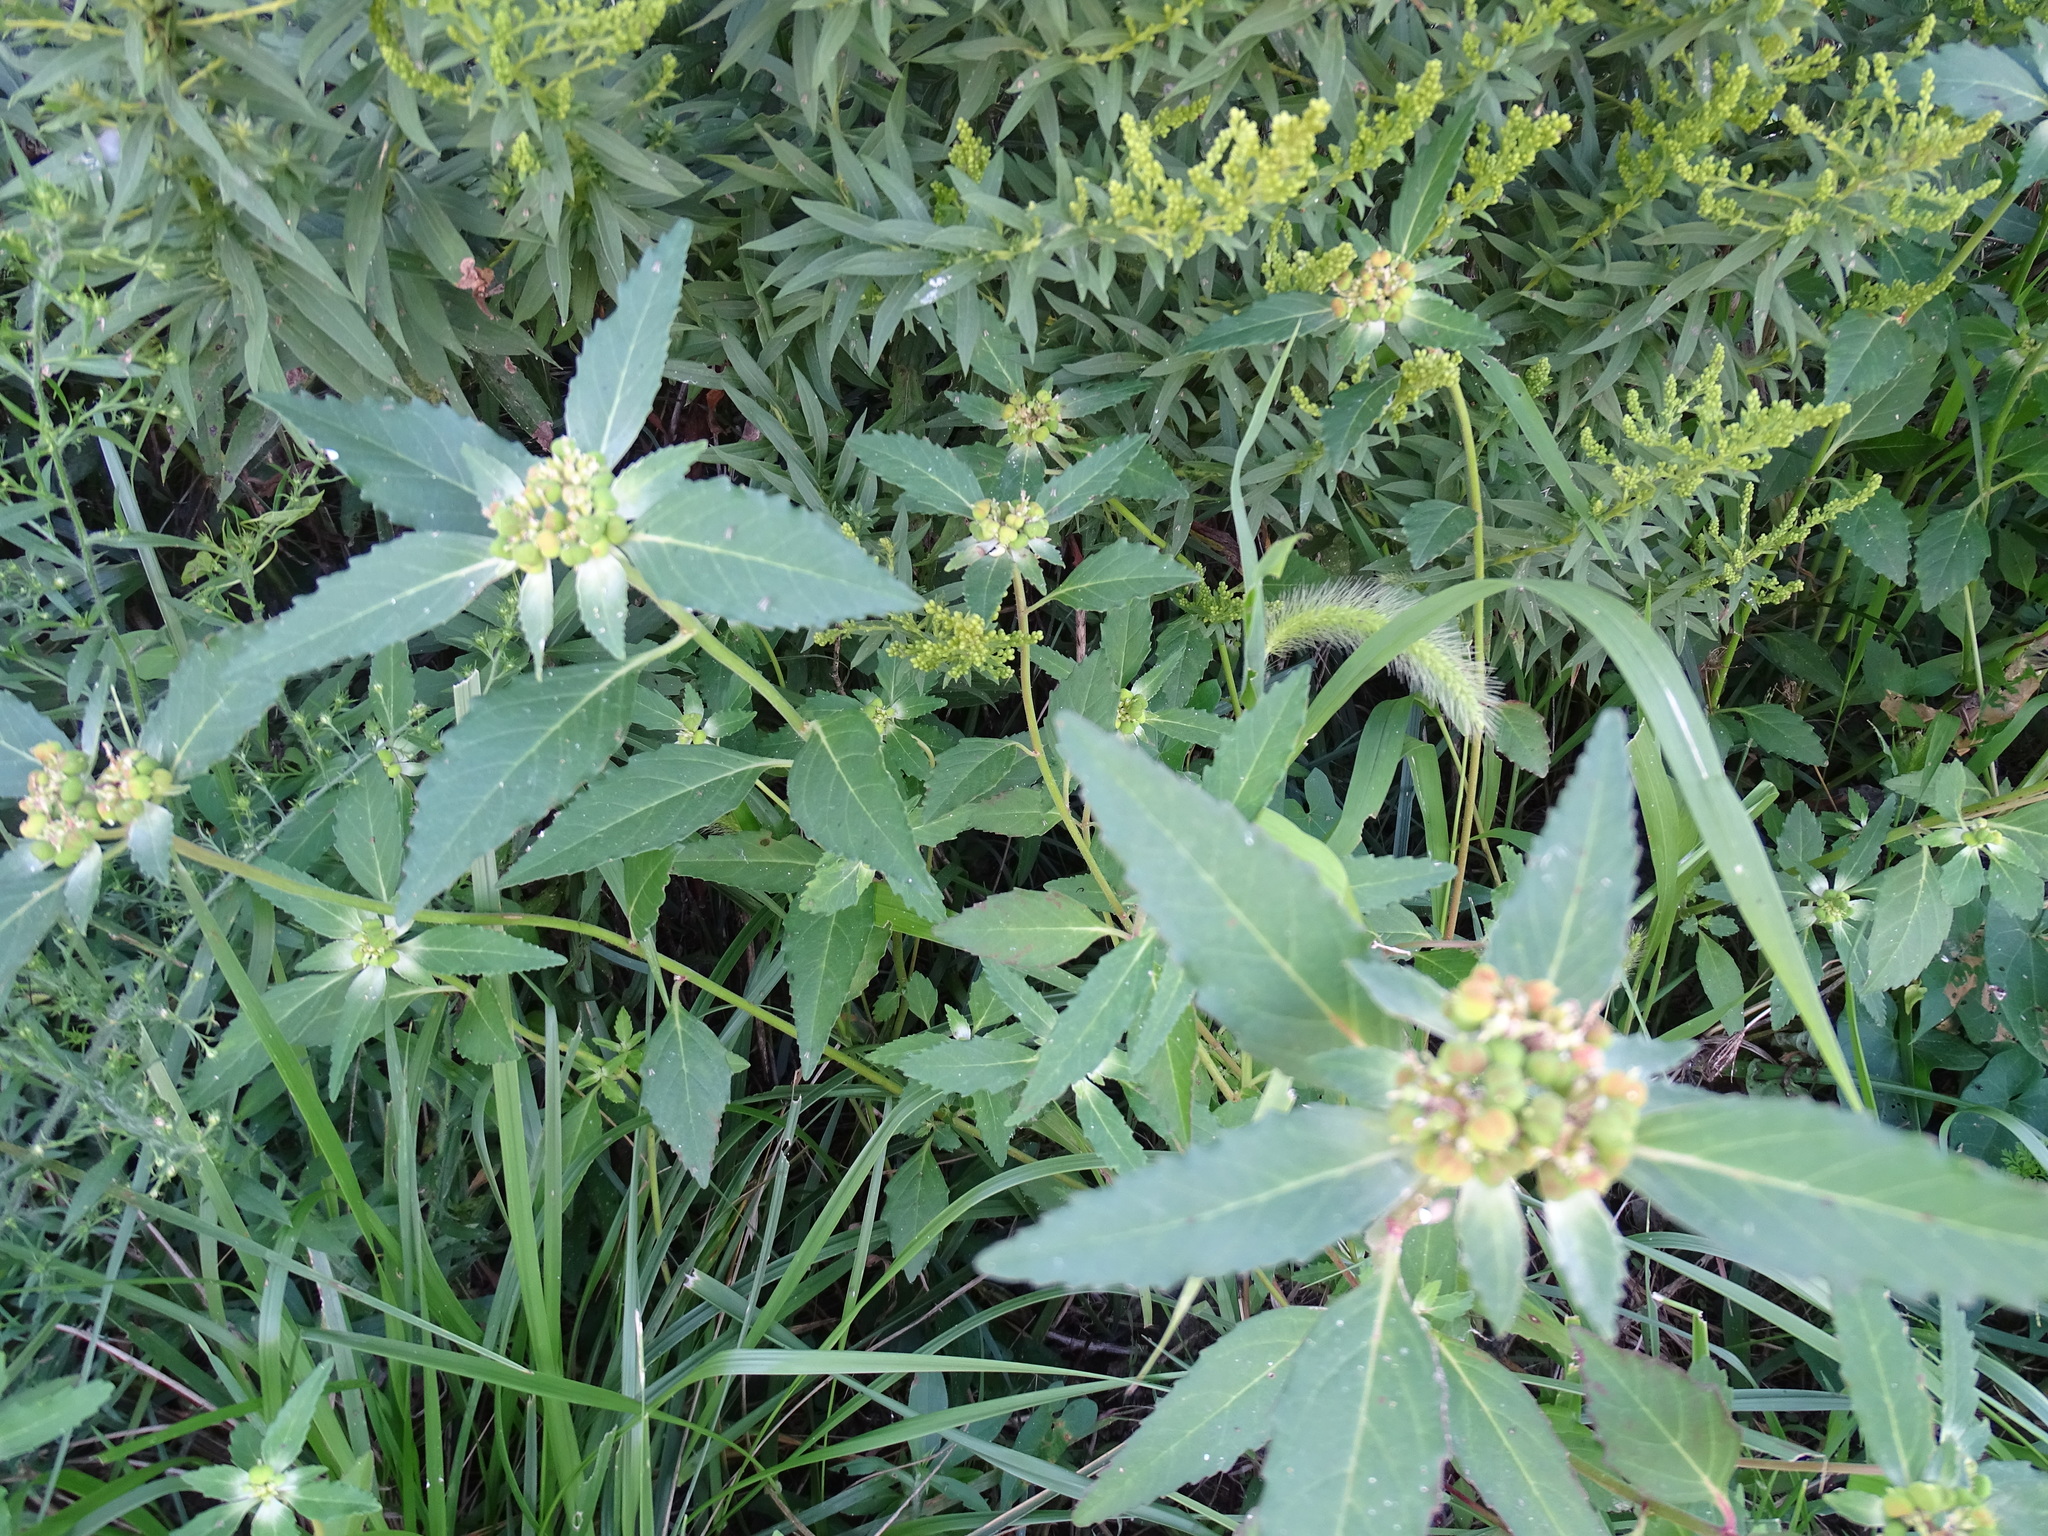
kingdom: Plantae
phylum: Tracheophyta
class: Magnoliopsida
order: Malpighiales
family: Euphorbiaceae
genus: Euphorbia
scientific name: Euphorbia davidii
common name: David's spurge
